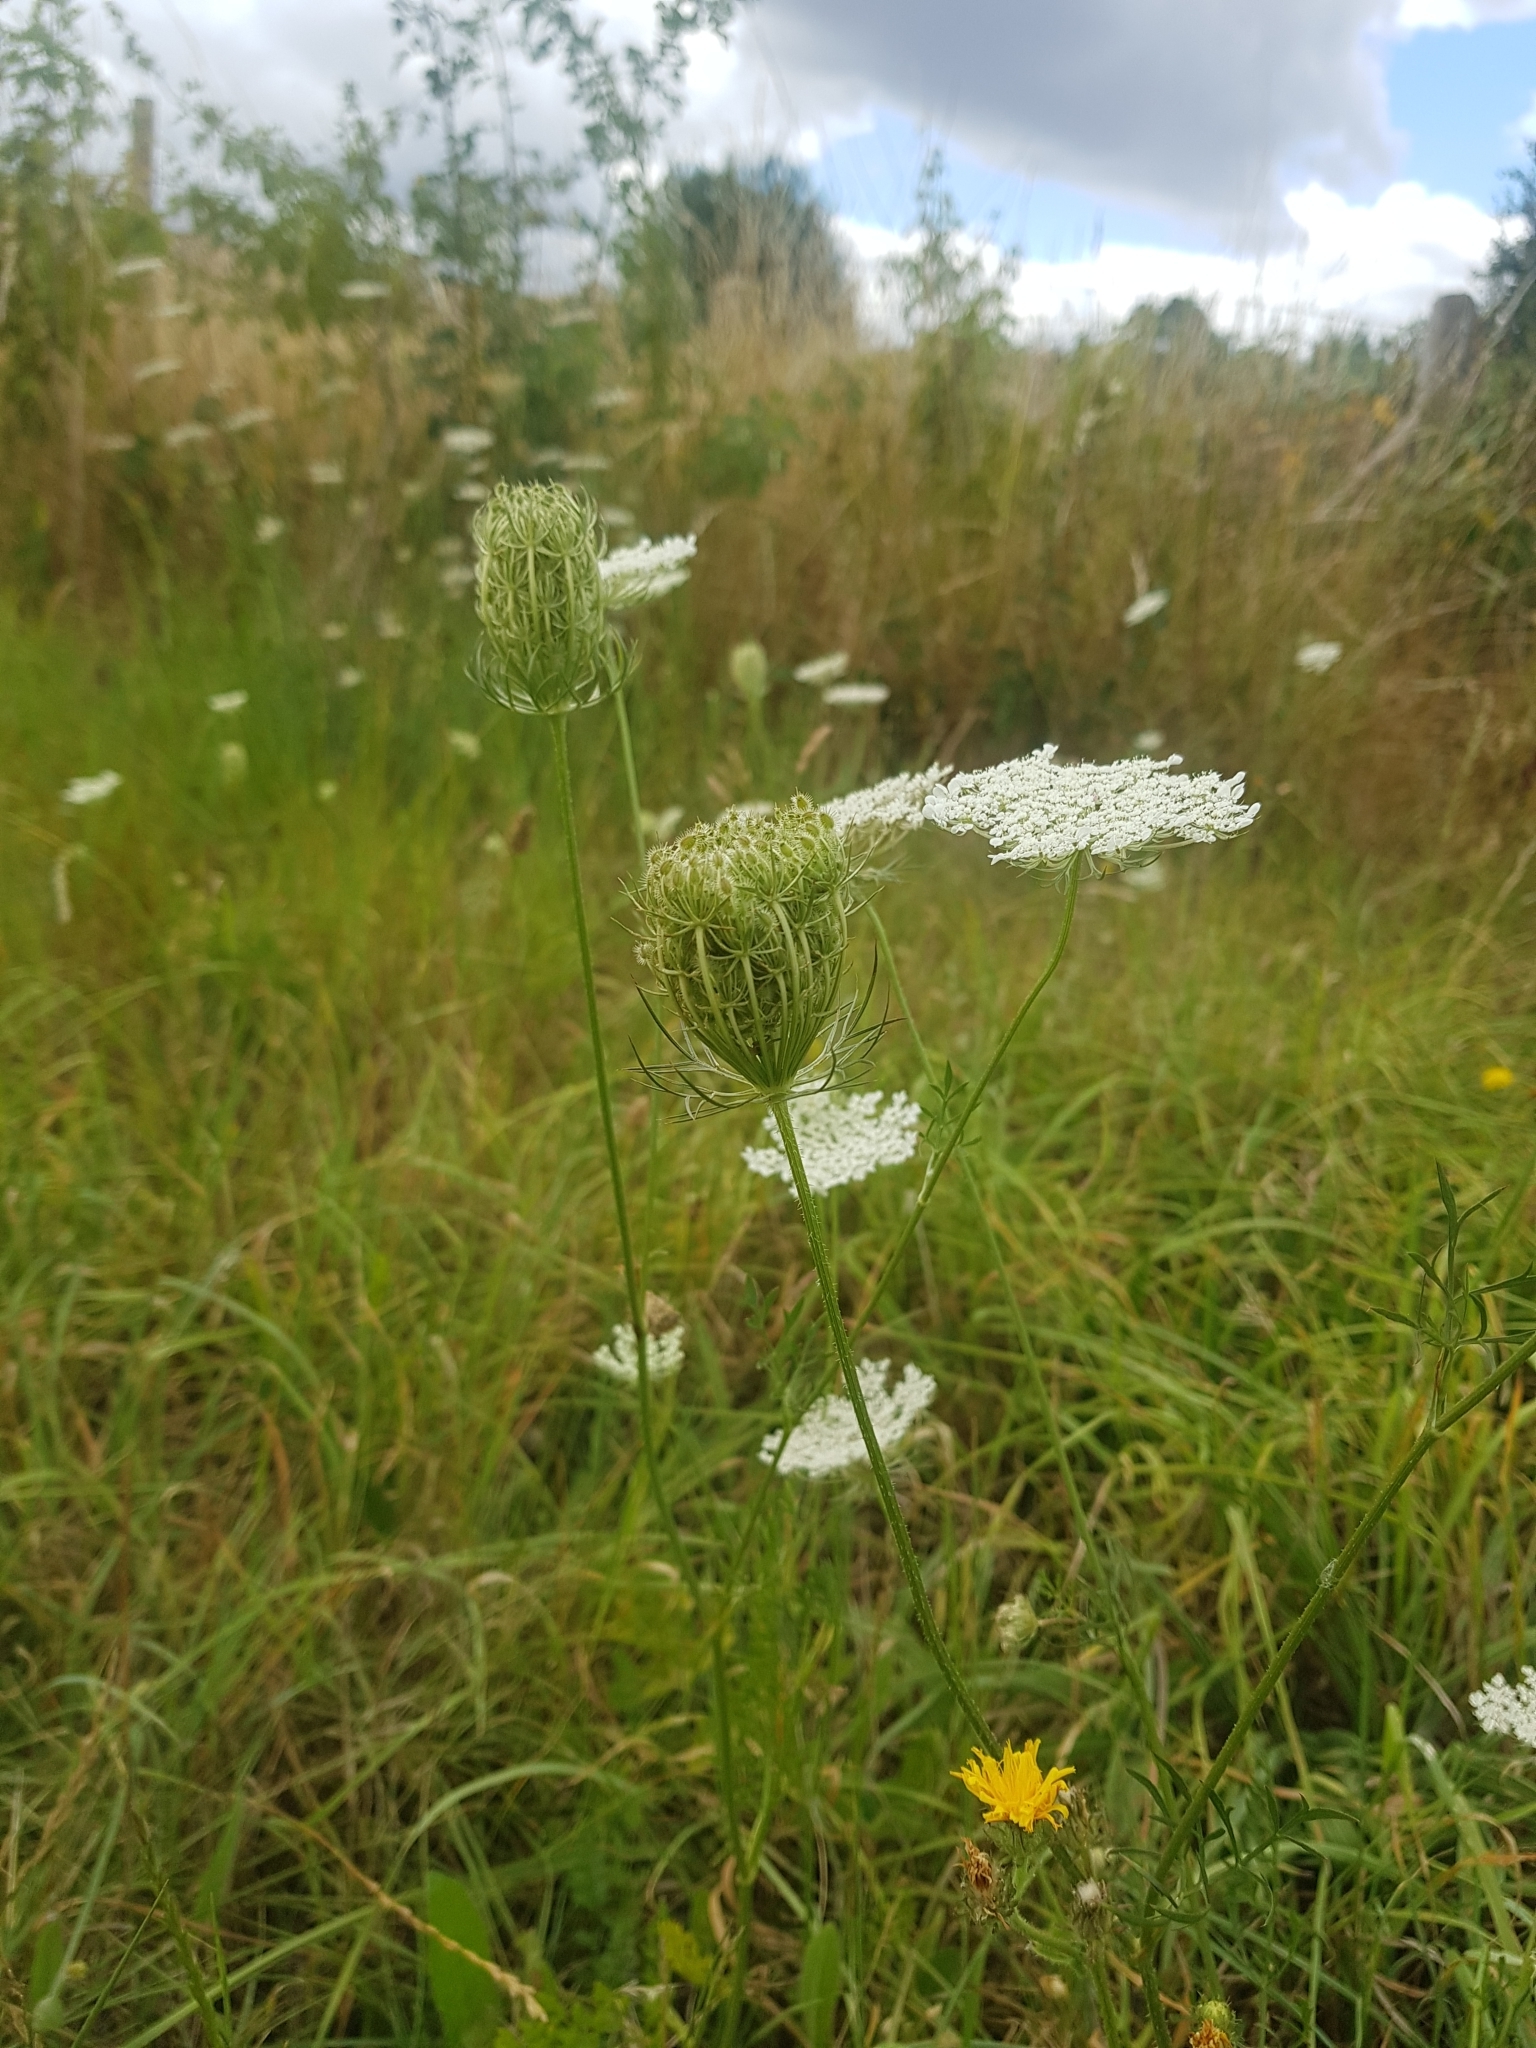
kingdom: Plantae
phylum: Tracheophyta
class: Magnoliopsida
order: Apiales
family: Apiaceae
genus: Daucus
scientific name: Daucus carota
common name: Wild carrot
